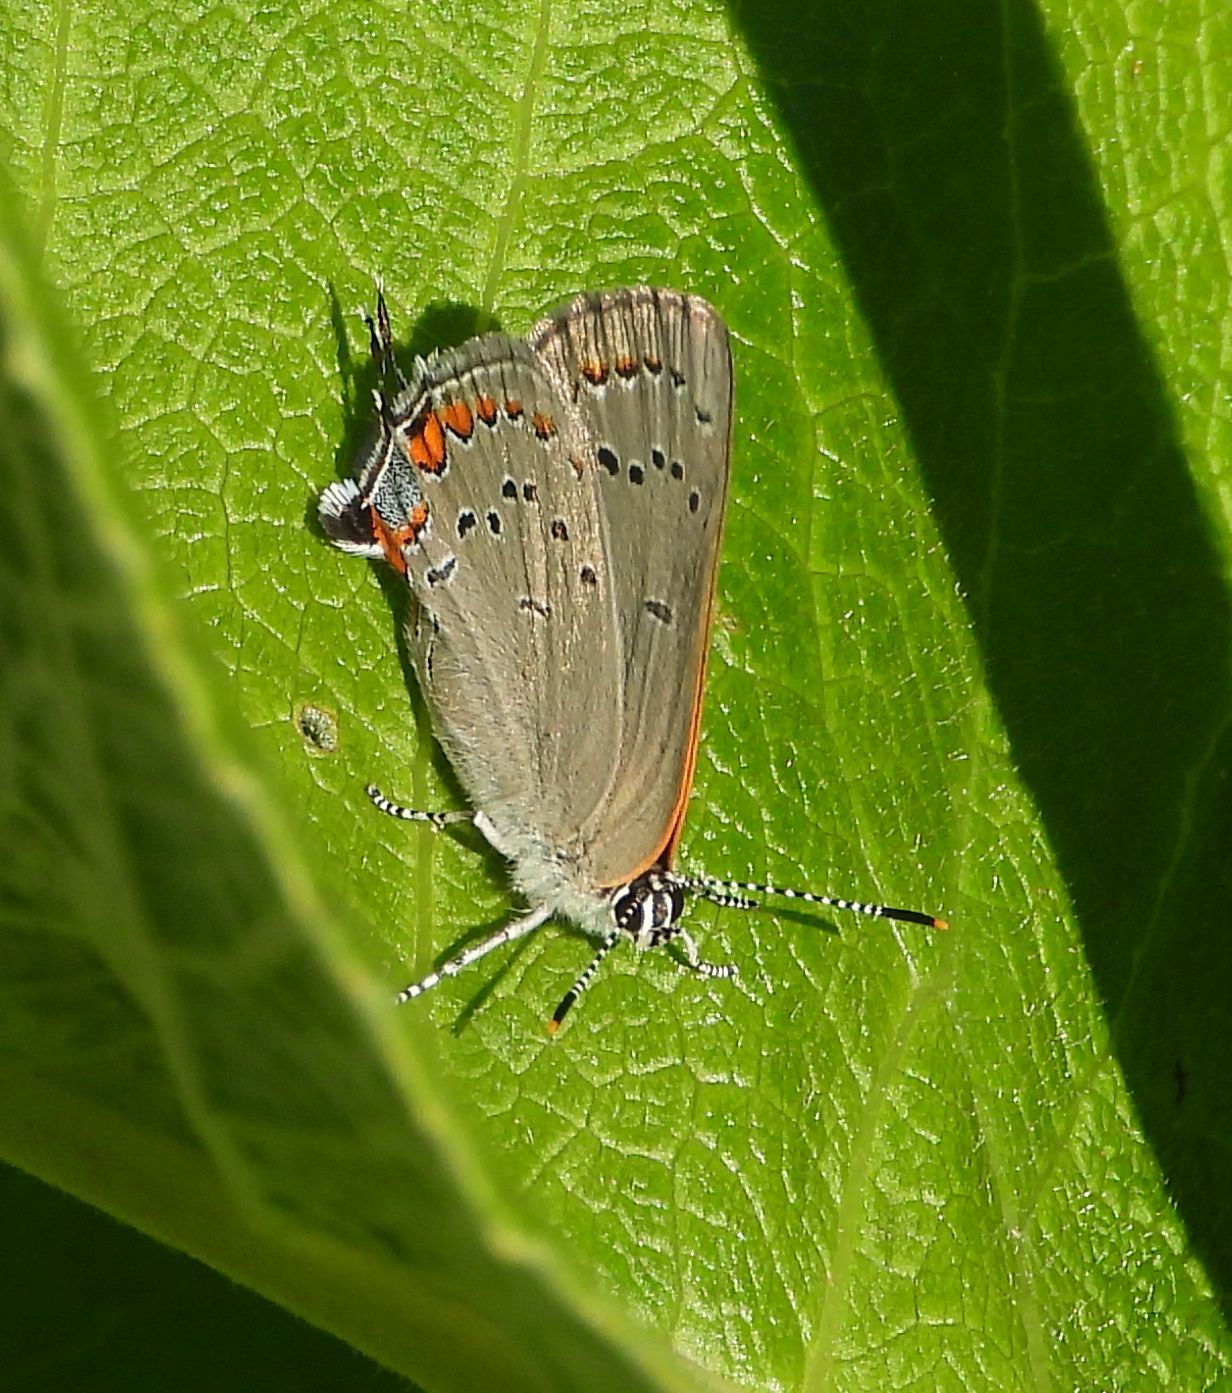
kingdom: Animalia
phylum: Arthropoda
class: Insecta
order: Lepidoptera
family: Lycaenidae
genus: Strymon
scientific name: Strymon acadica
